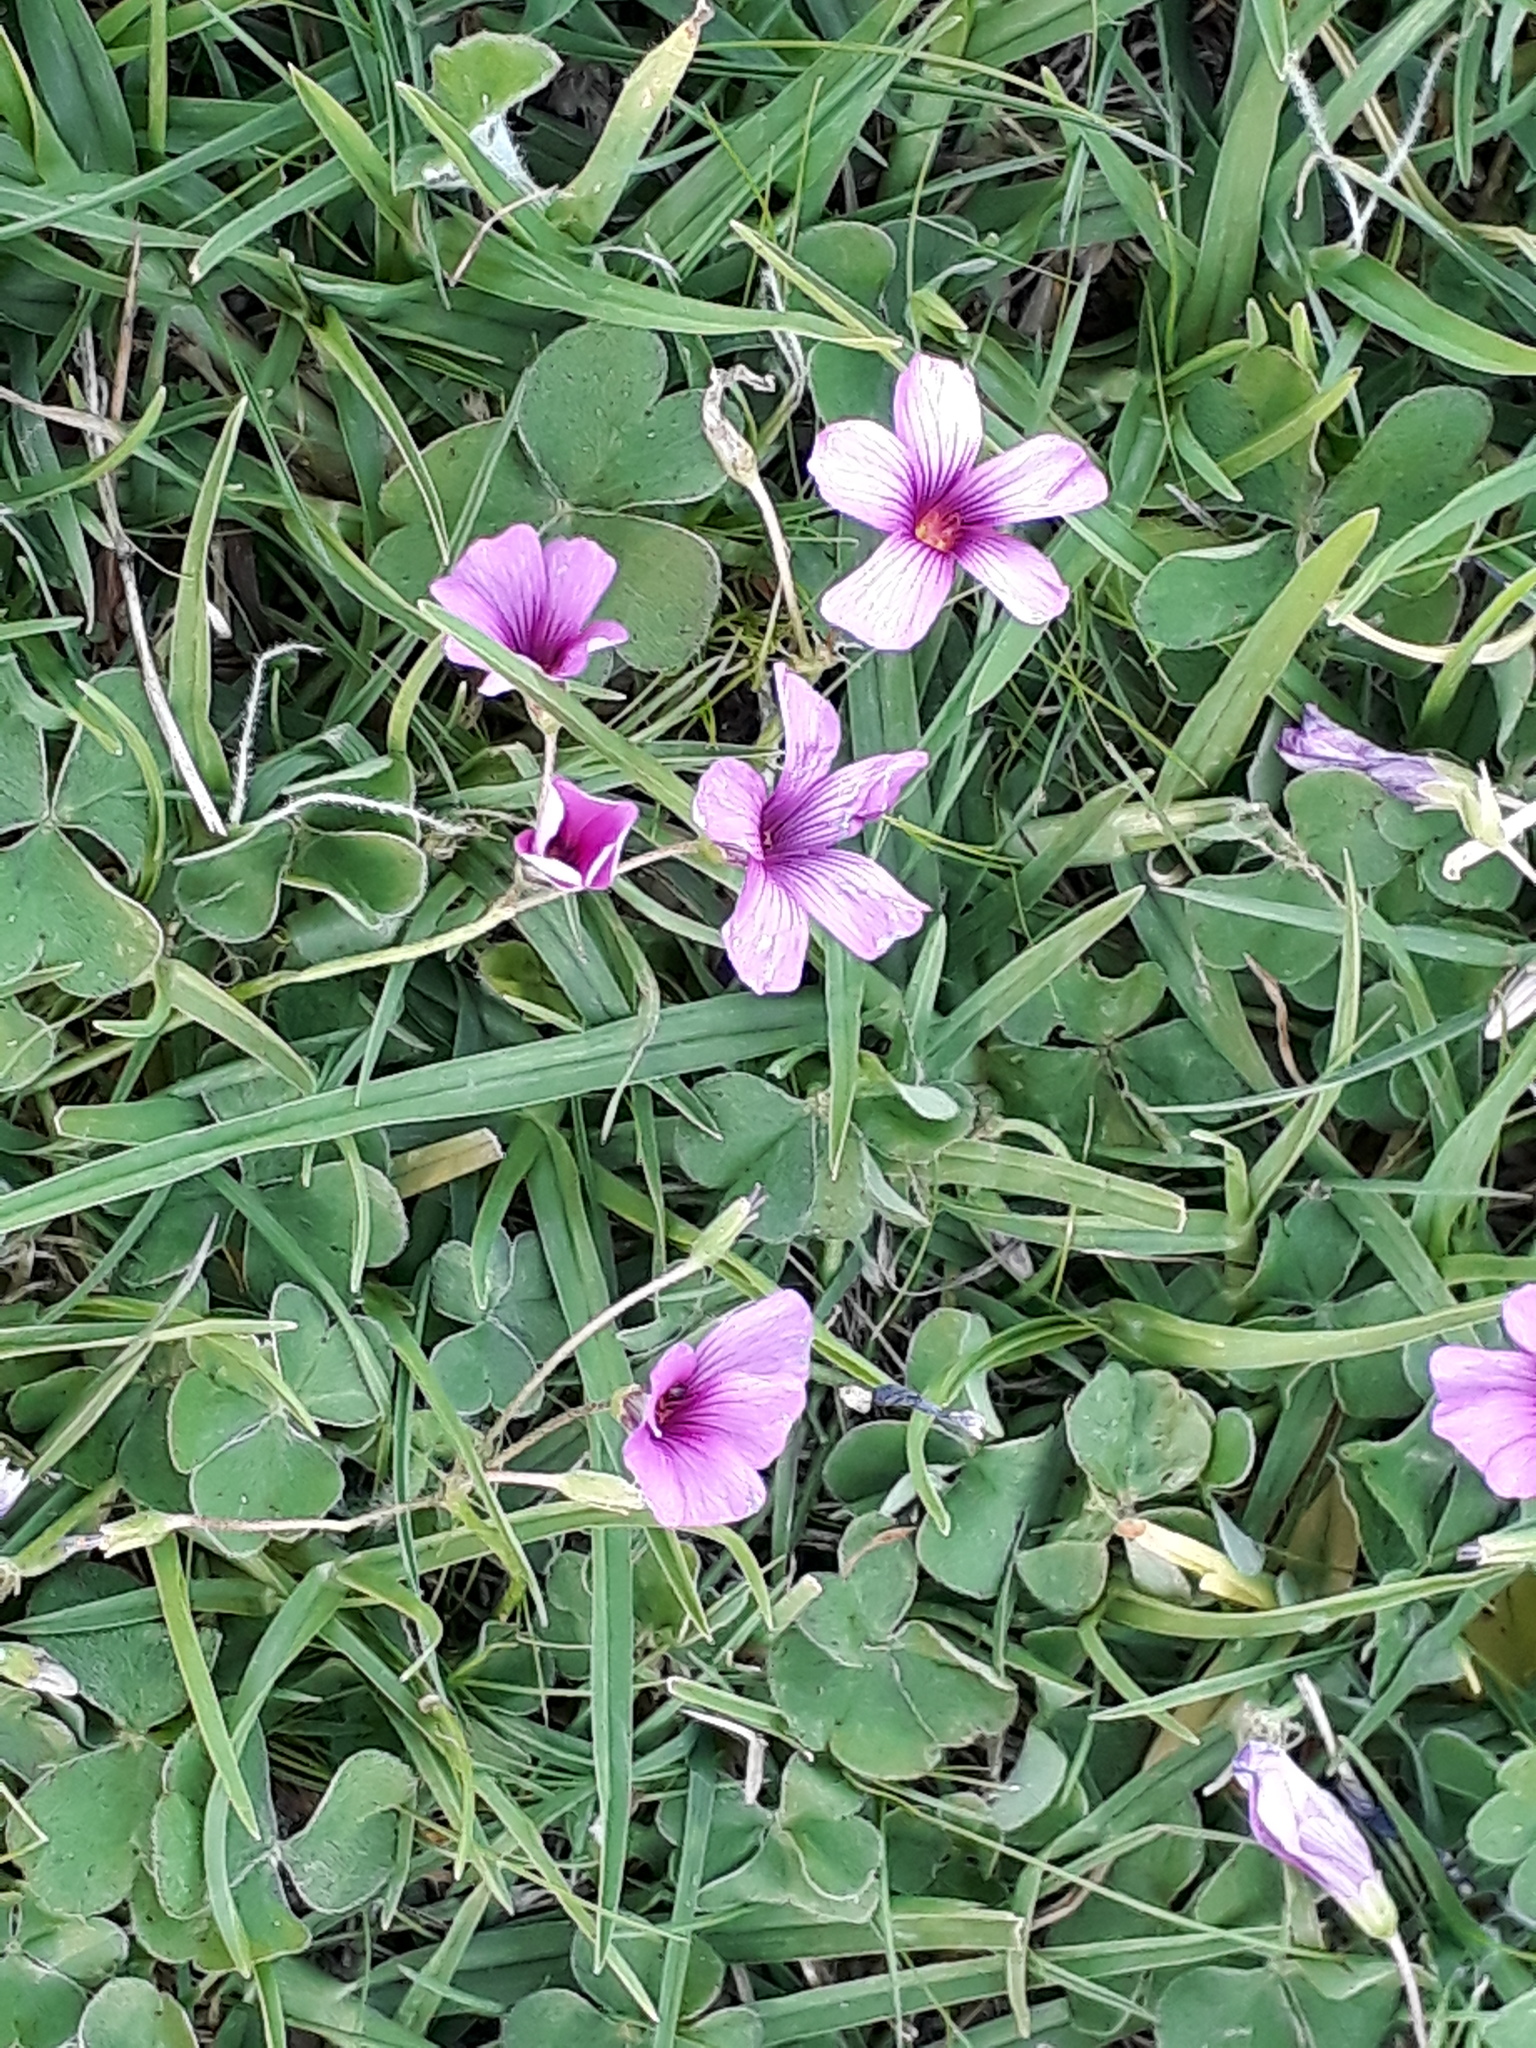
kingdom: Plantae
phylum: Tracheophyta
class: Magnoliopsida
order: Oxalidales
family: Oxalidaceae
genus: Oxalis
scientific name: Oxalis articulata
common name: Pink-sorrel
